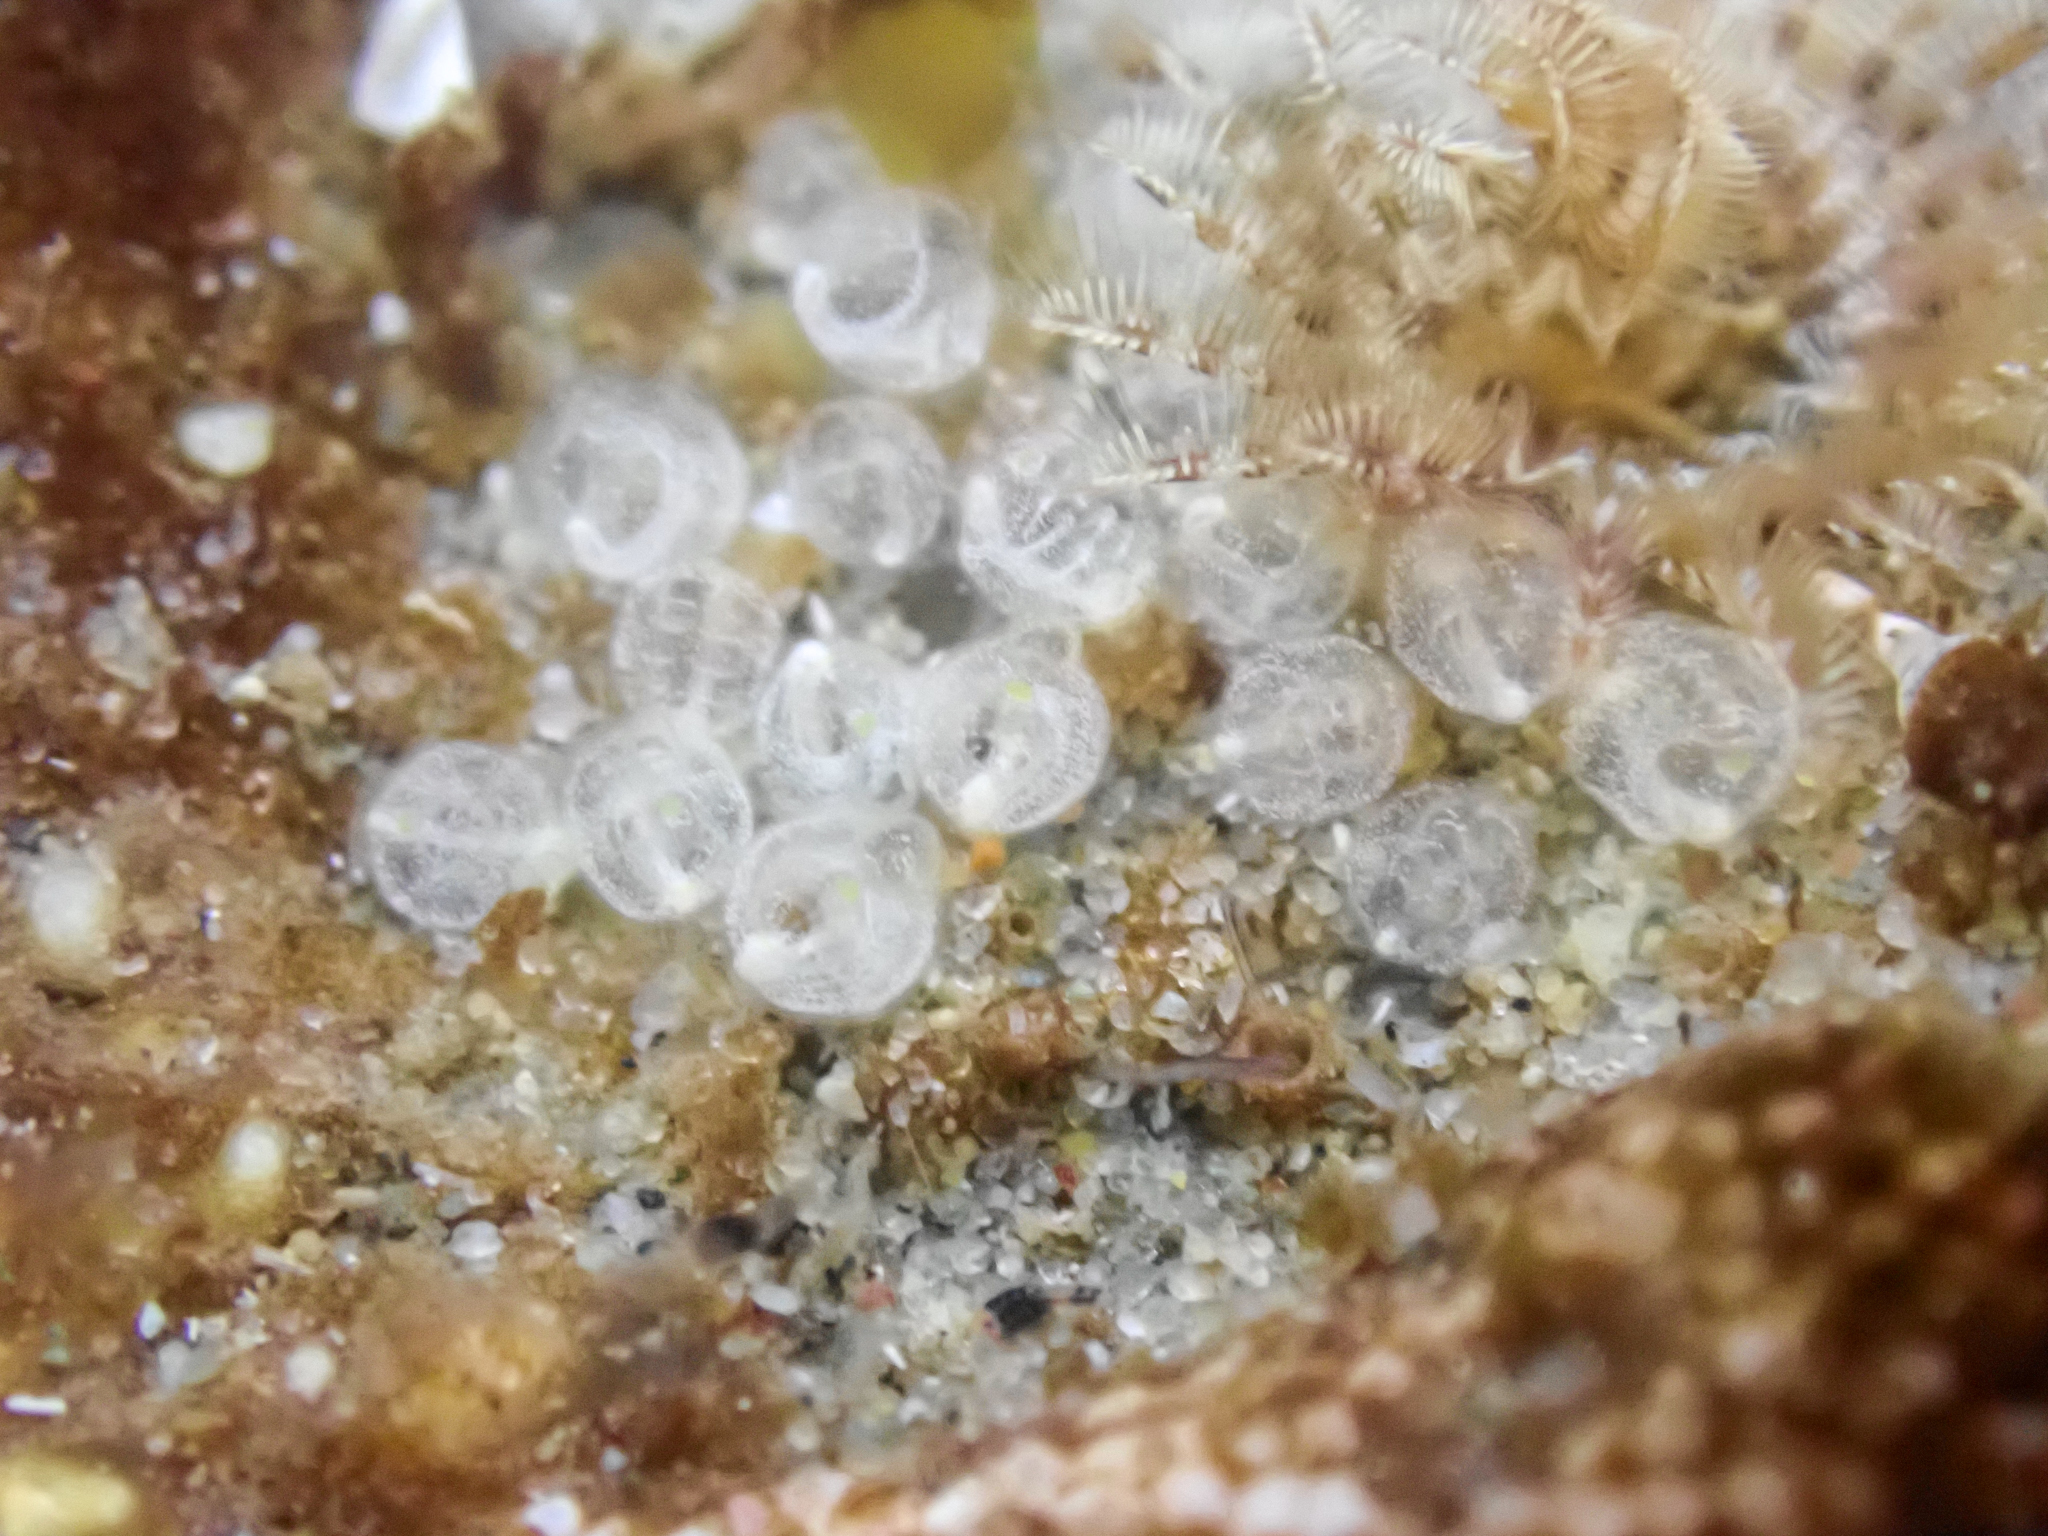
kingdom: Animalia
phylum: Chordata
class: Ascidiacea
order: Aplousobranchia
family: Clavelinidae
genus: Pycnoclavella
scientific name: Pycnoclavella stanleyi
